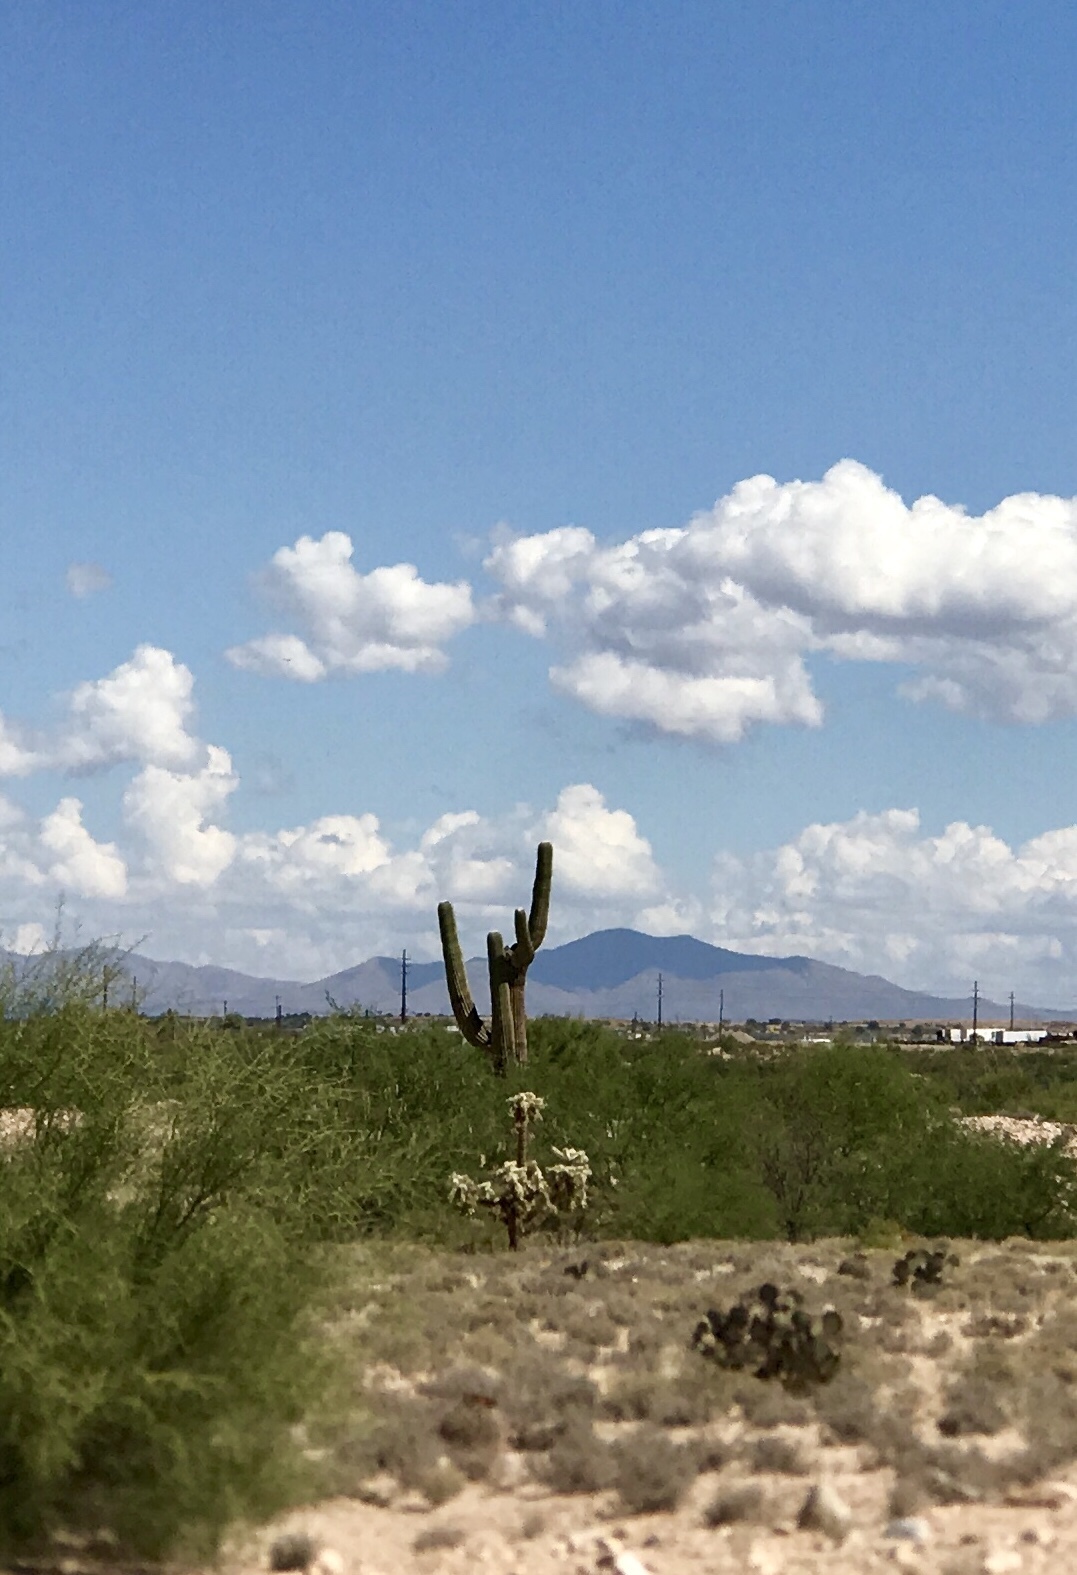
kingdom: Plantae
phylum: Tracheophyta
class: Magnoliopsida
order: Caryophyllales
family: Cactaceae
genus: Carnegiea
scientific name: Carnegiea gigantea
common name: Saguaro
